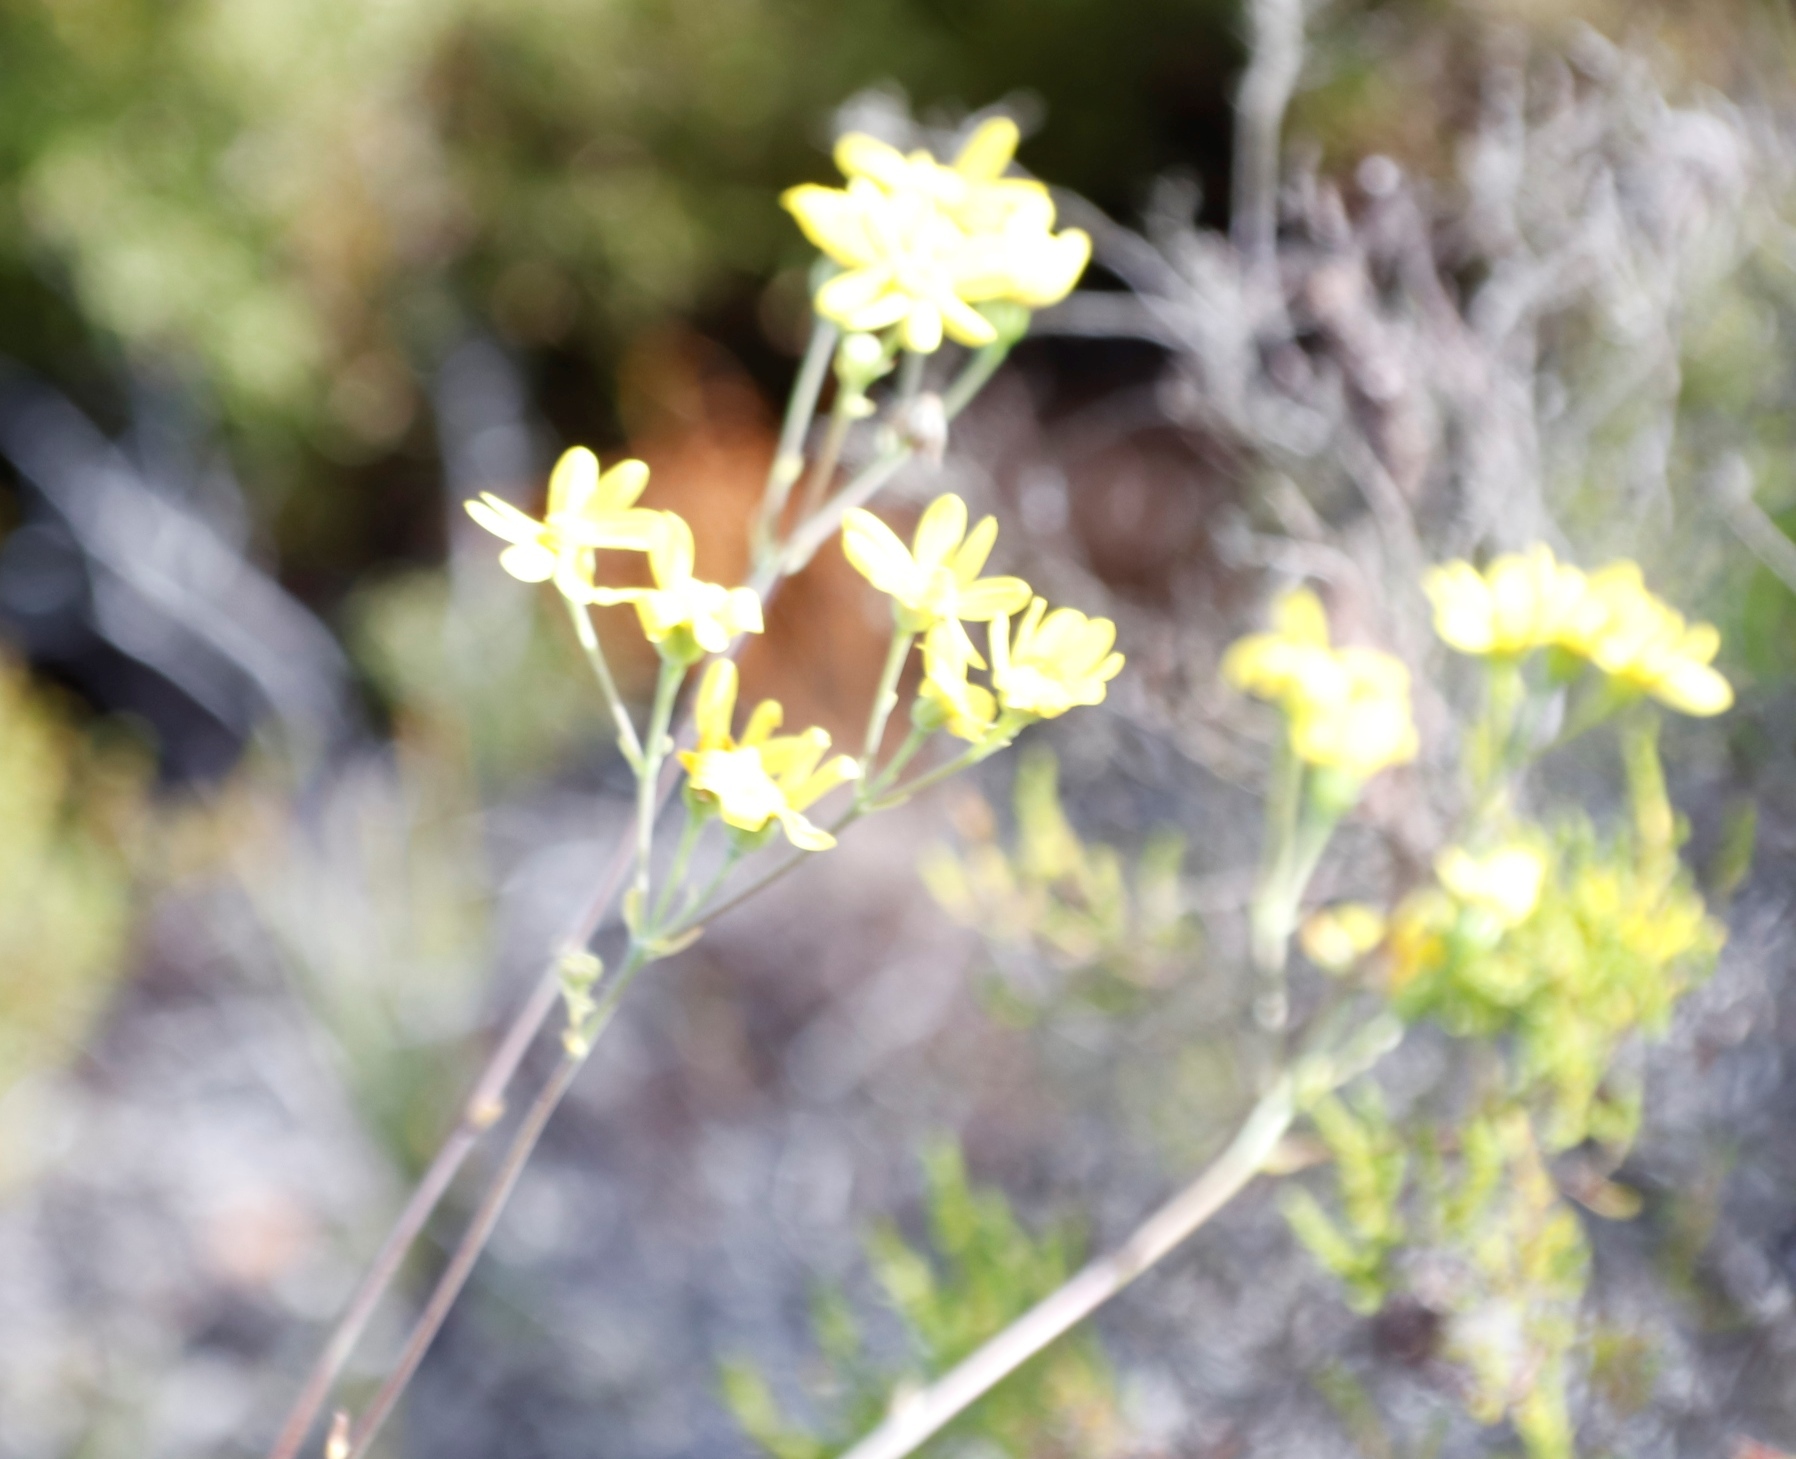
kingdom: Plantae
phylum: Tracheophyta
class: Magnoliopsida
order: Asterales
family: Asteraceae
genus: Othonna
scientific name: Othonna quinquedentata
